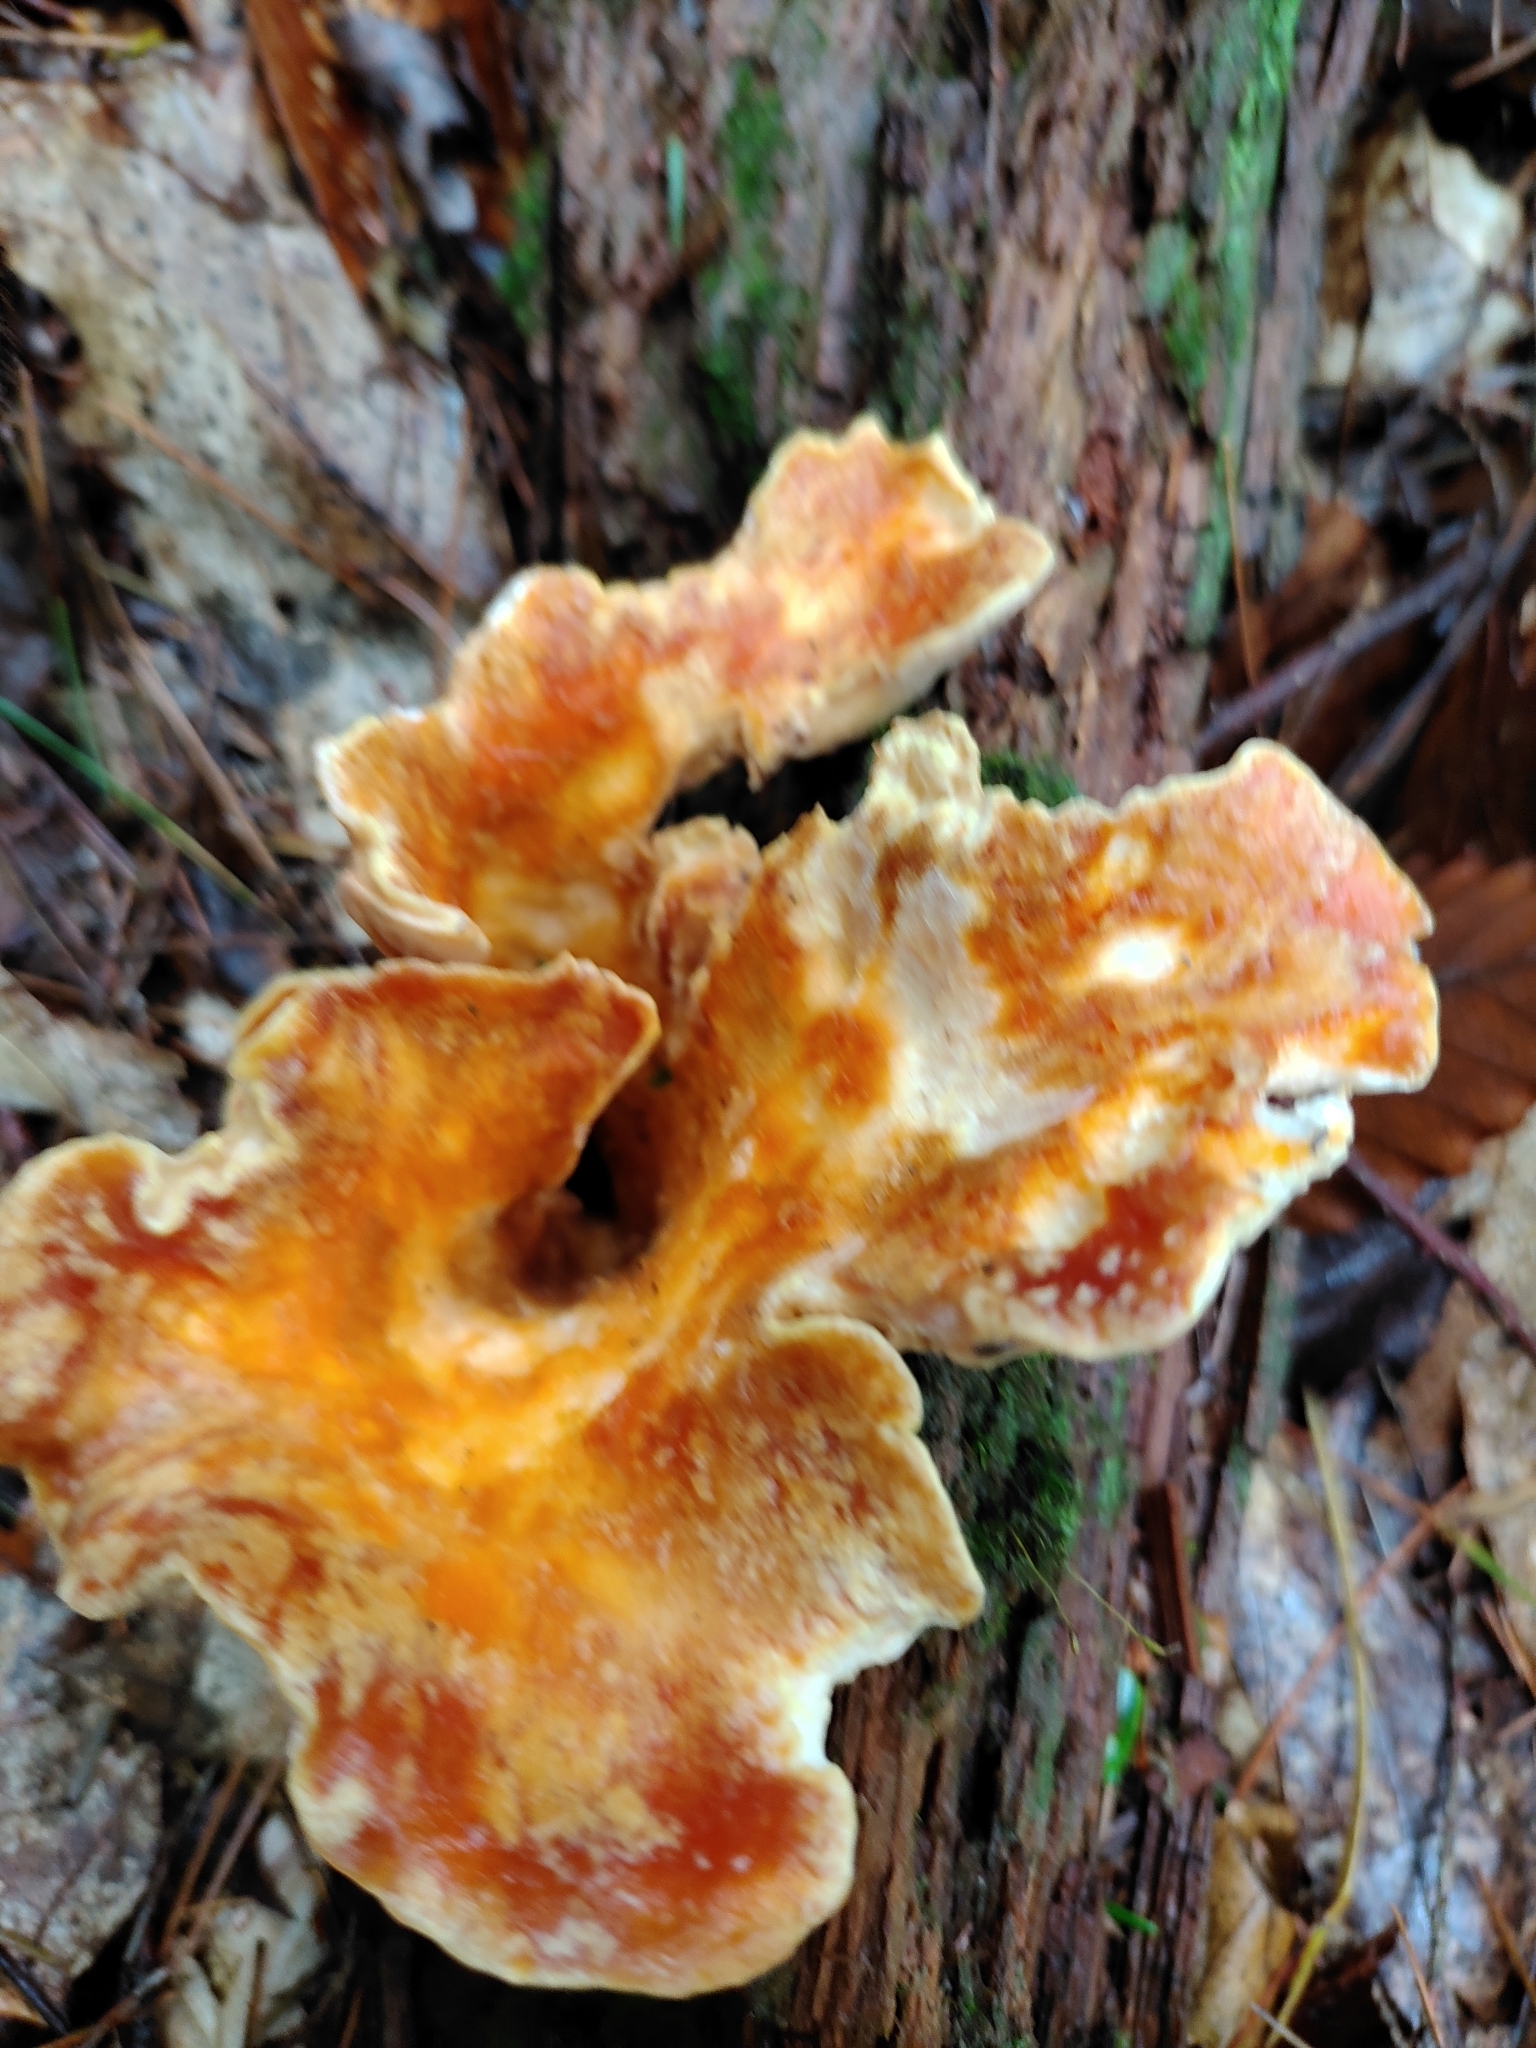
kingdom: Fungi
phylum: Basidiomycota
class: Agaricomycetes
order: Gomphales
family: Gomphaceae
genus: Turbinellus
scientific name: Turbinellus floccosus
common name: Scaly chanterelle
